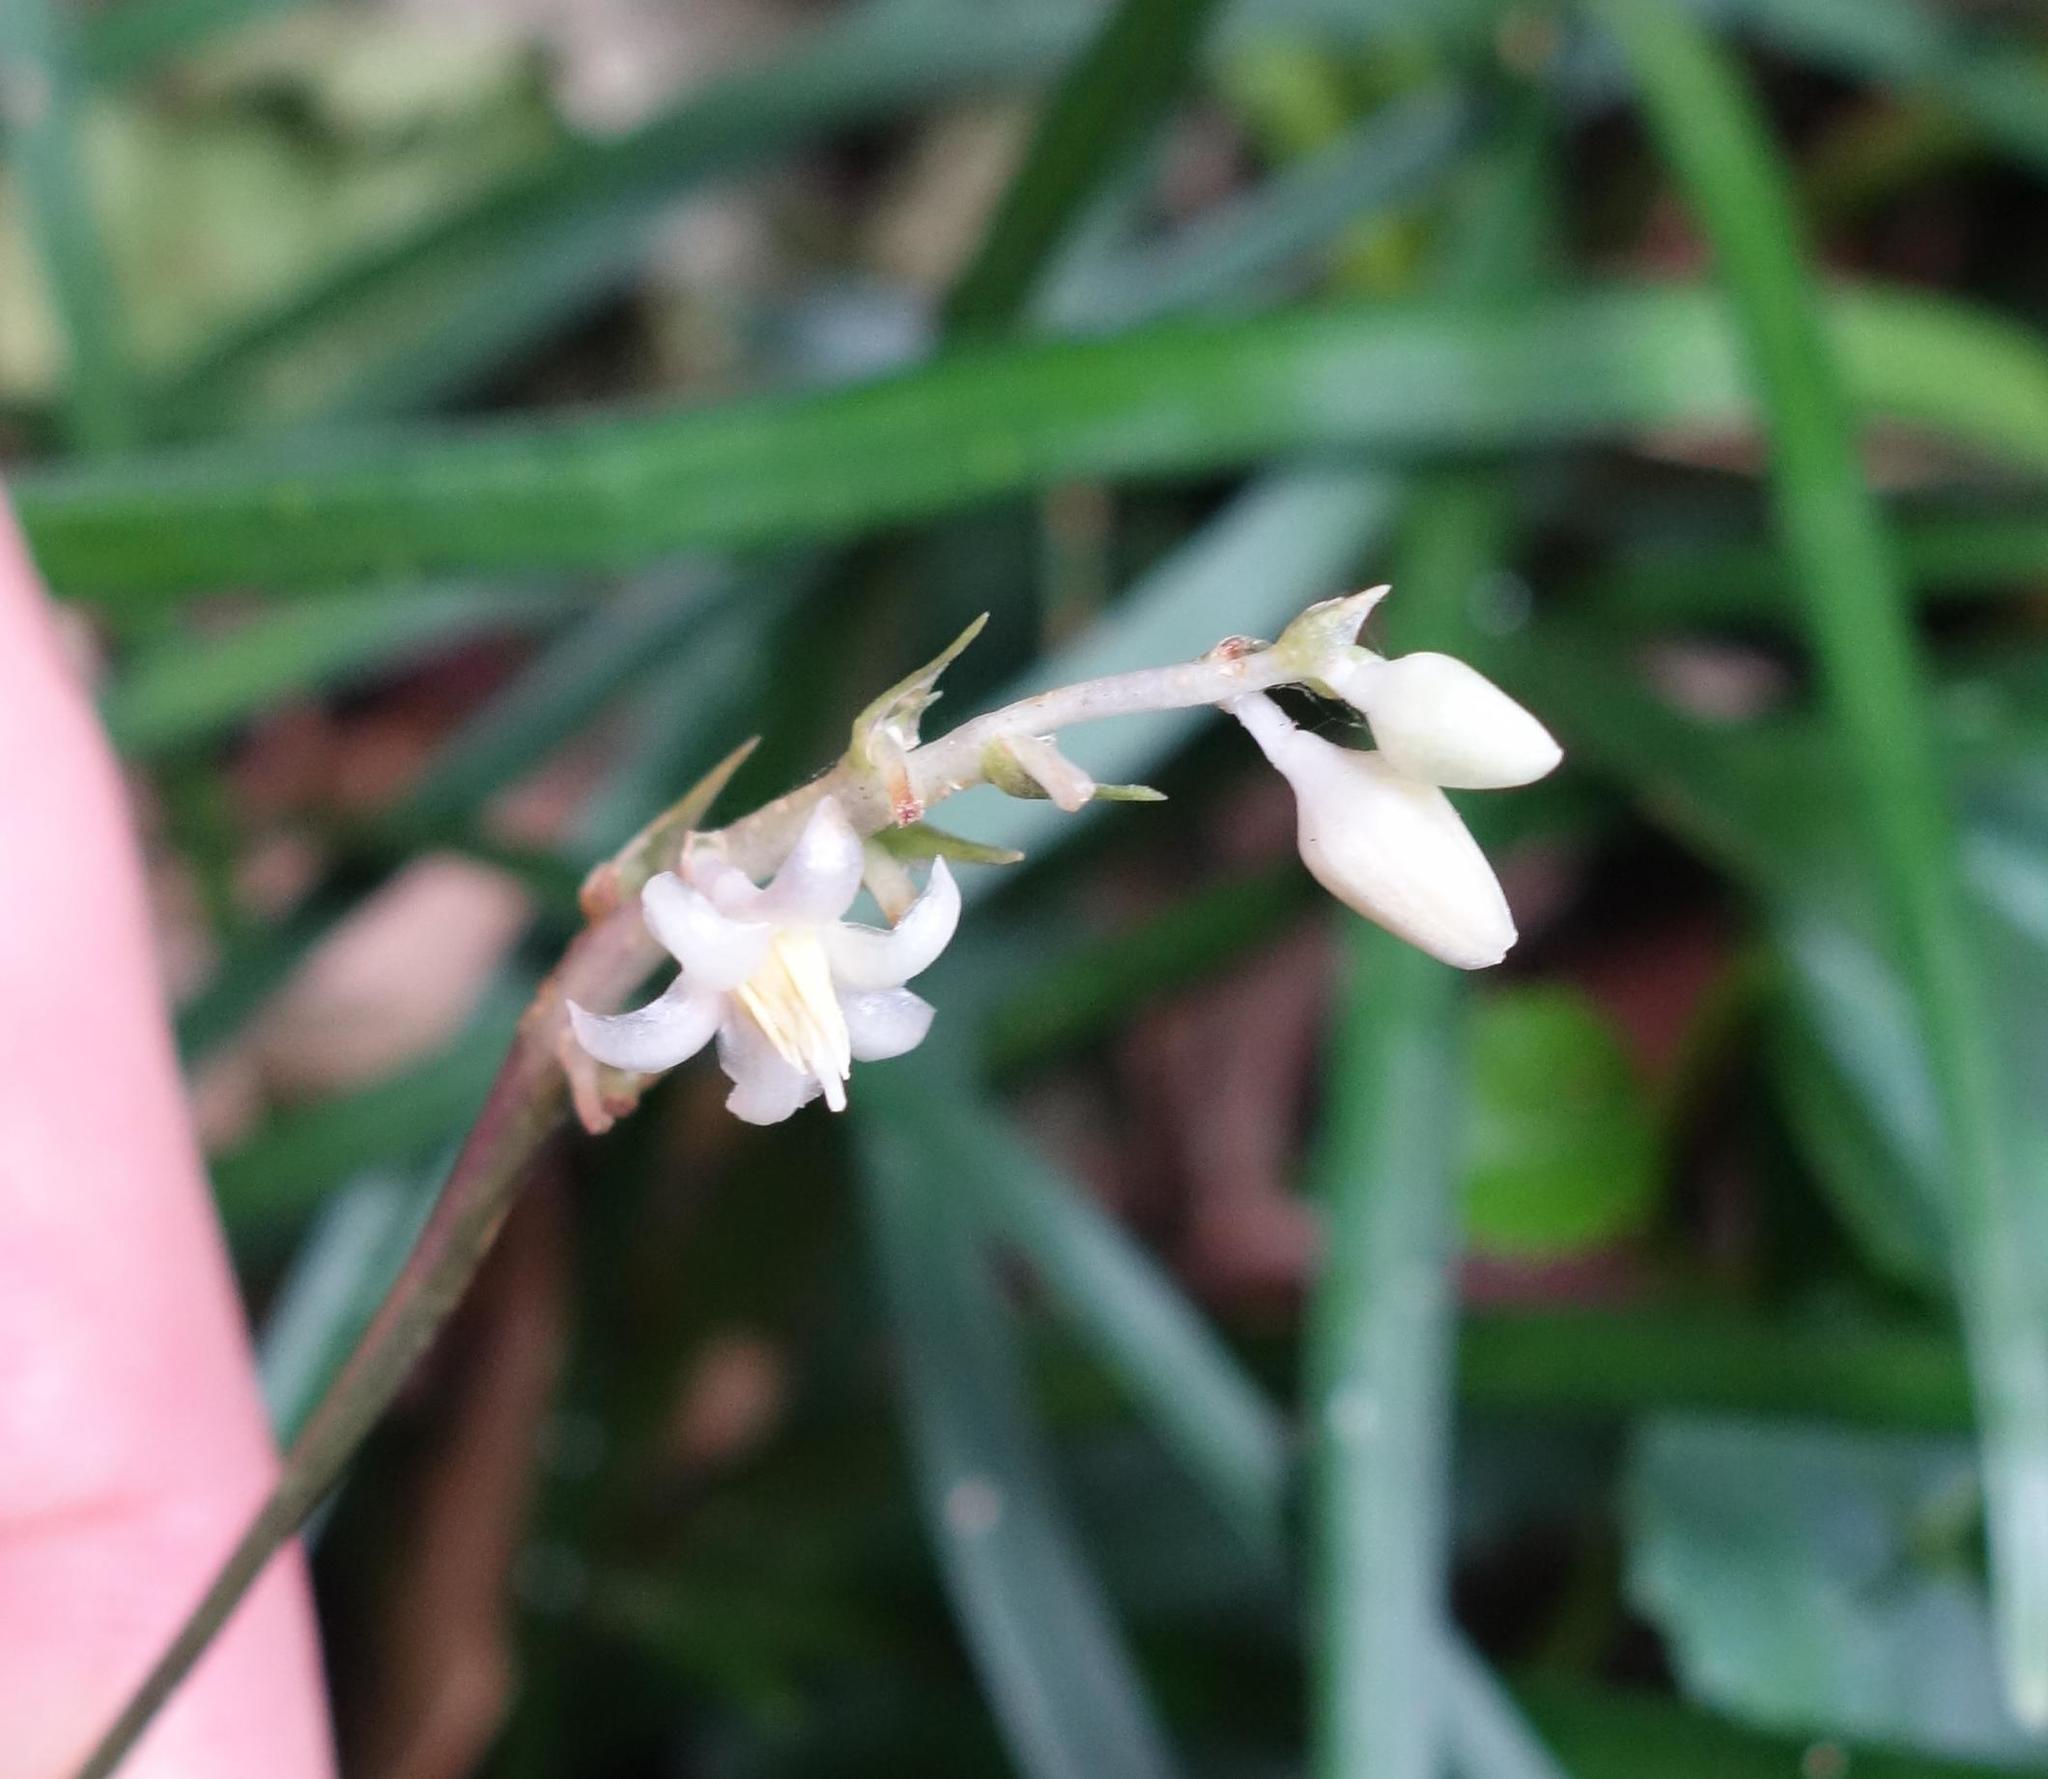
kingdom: Plantae
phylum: Tracheophyta
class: Liliopsida
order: Asparagales
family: Asparagaceae
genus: Ophiopogon
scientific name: Ophiopogon reversus
